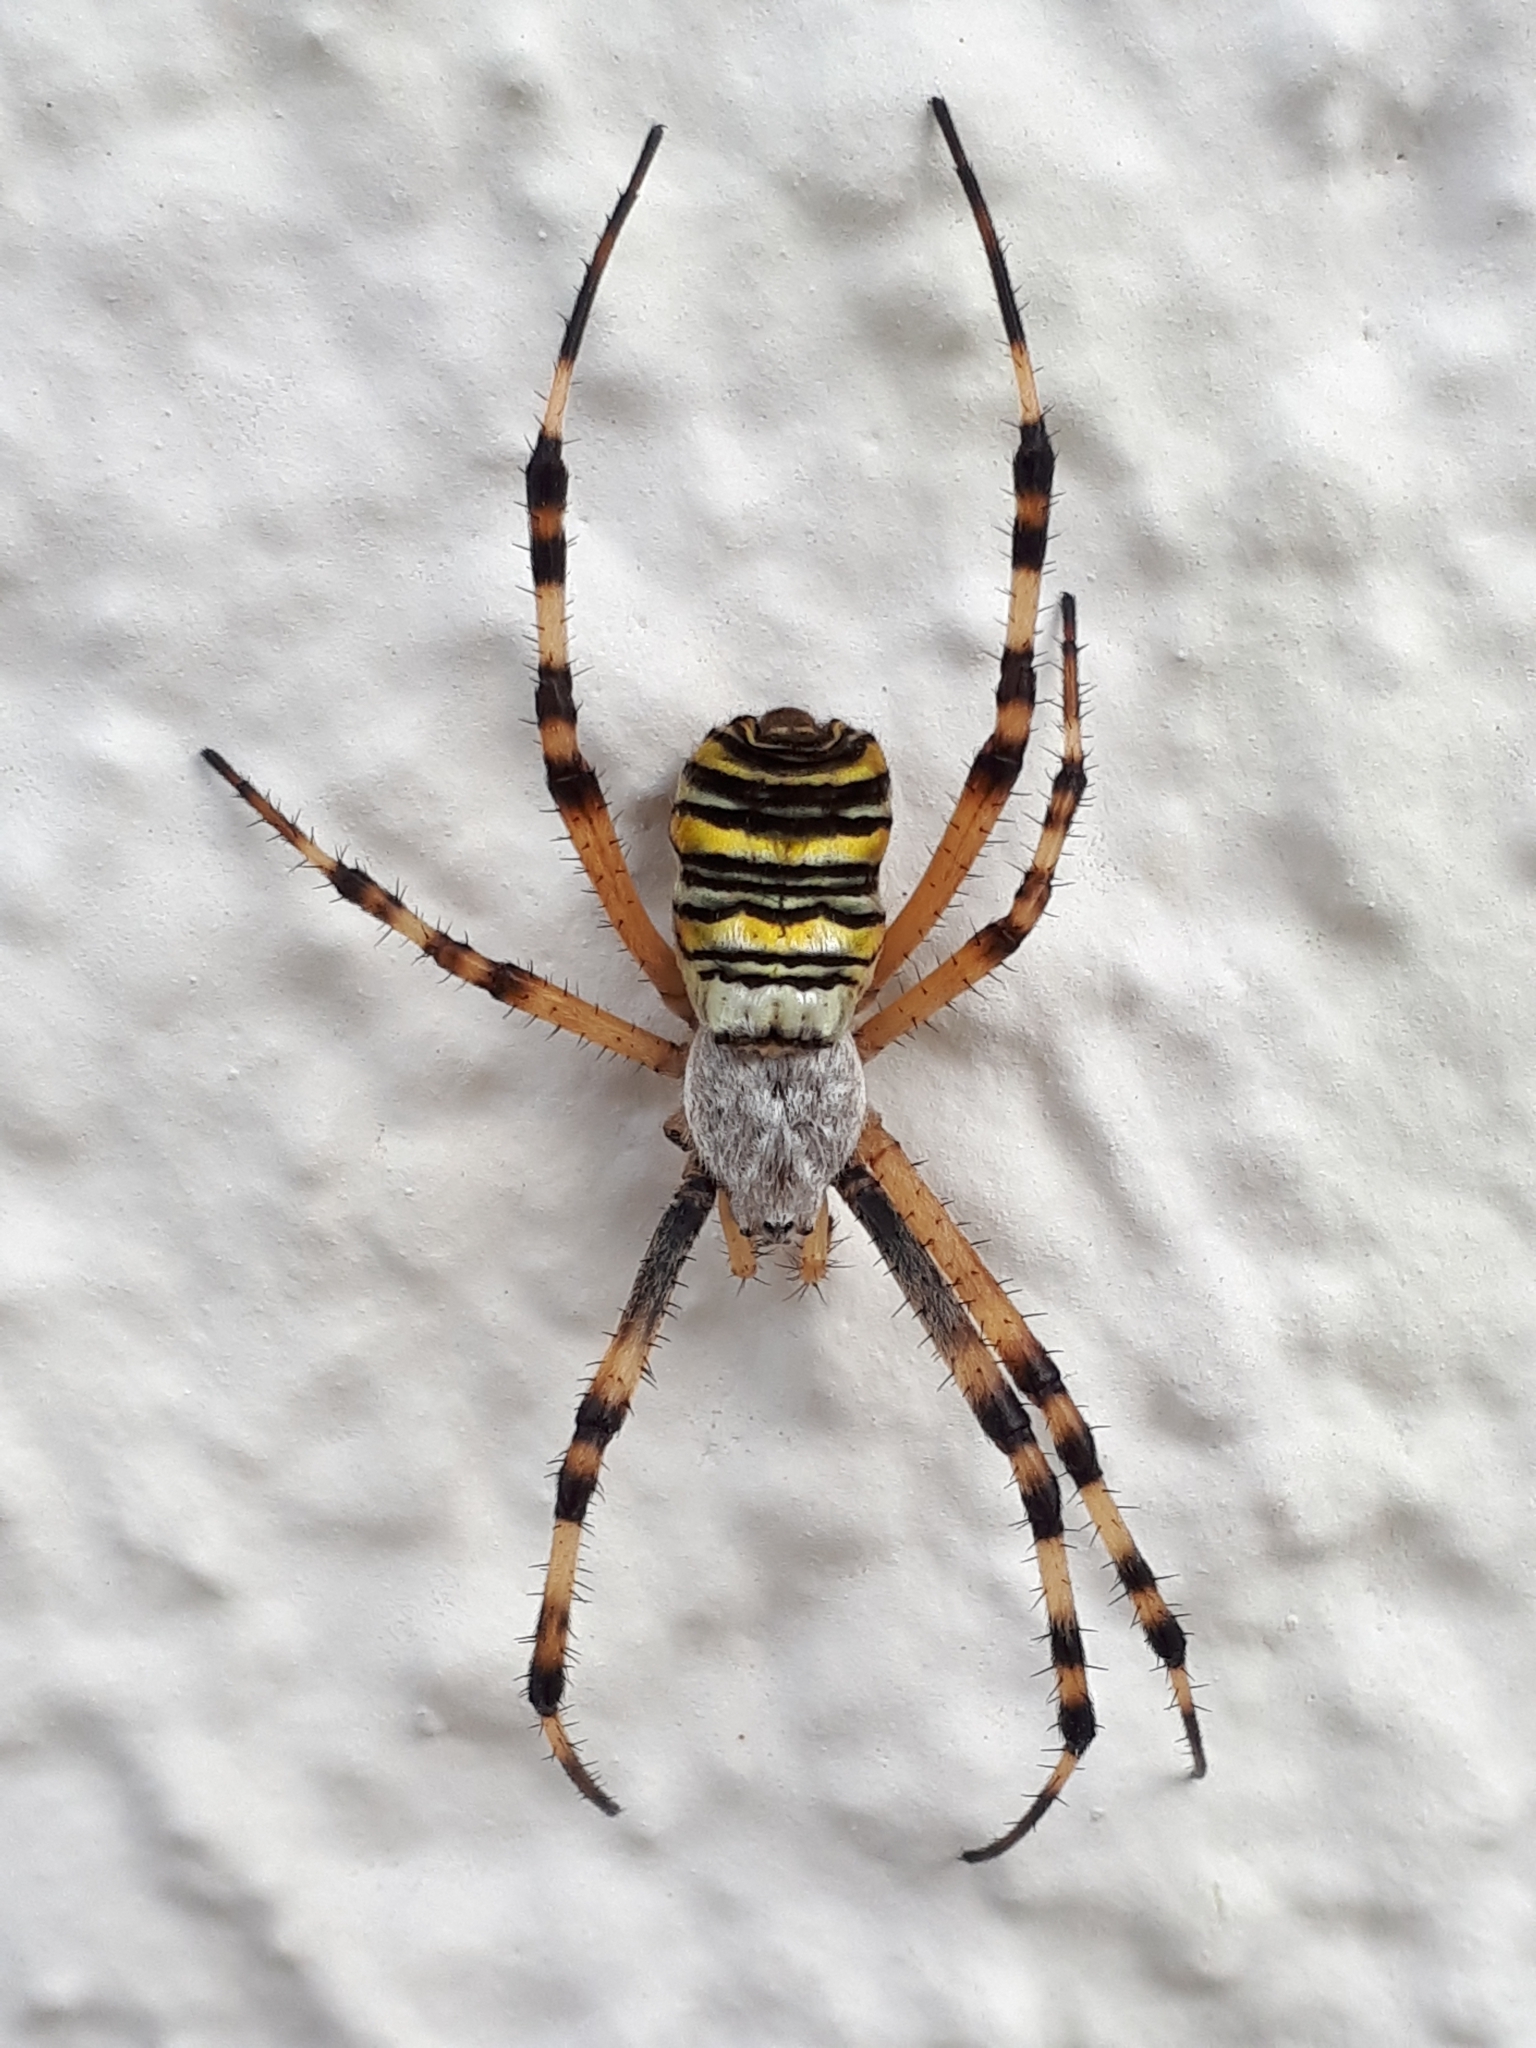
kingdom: Animalia
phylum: Arthropoda
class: Arachnida
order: Araneae
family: Araneidae
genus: Argiope
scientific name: Argiope bruennichi
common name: Wasp spider
